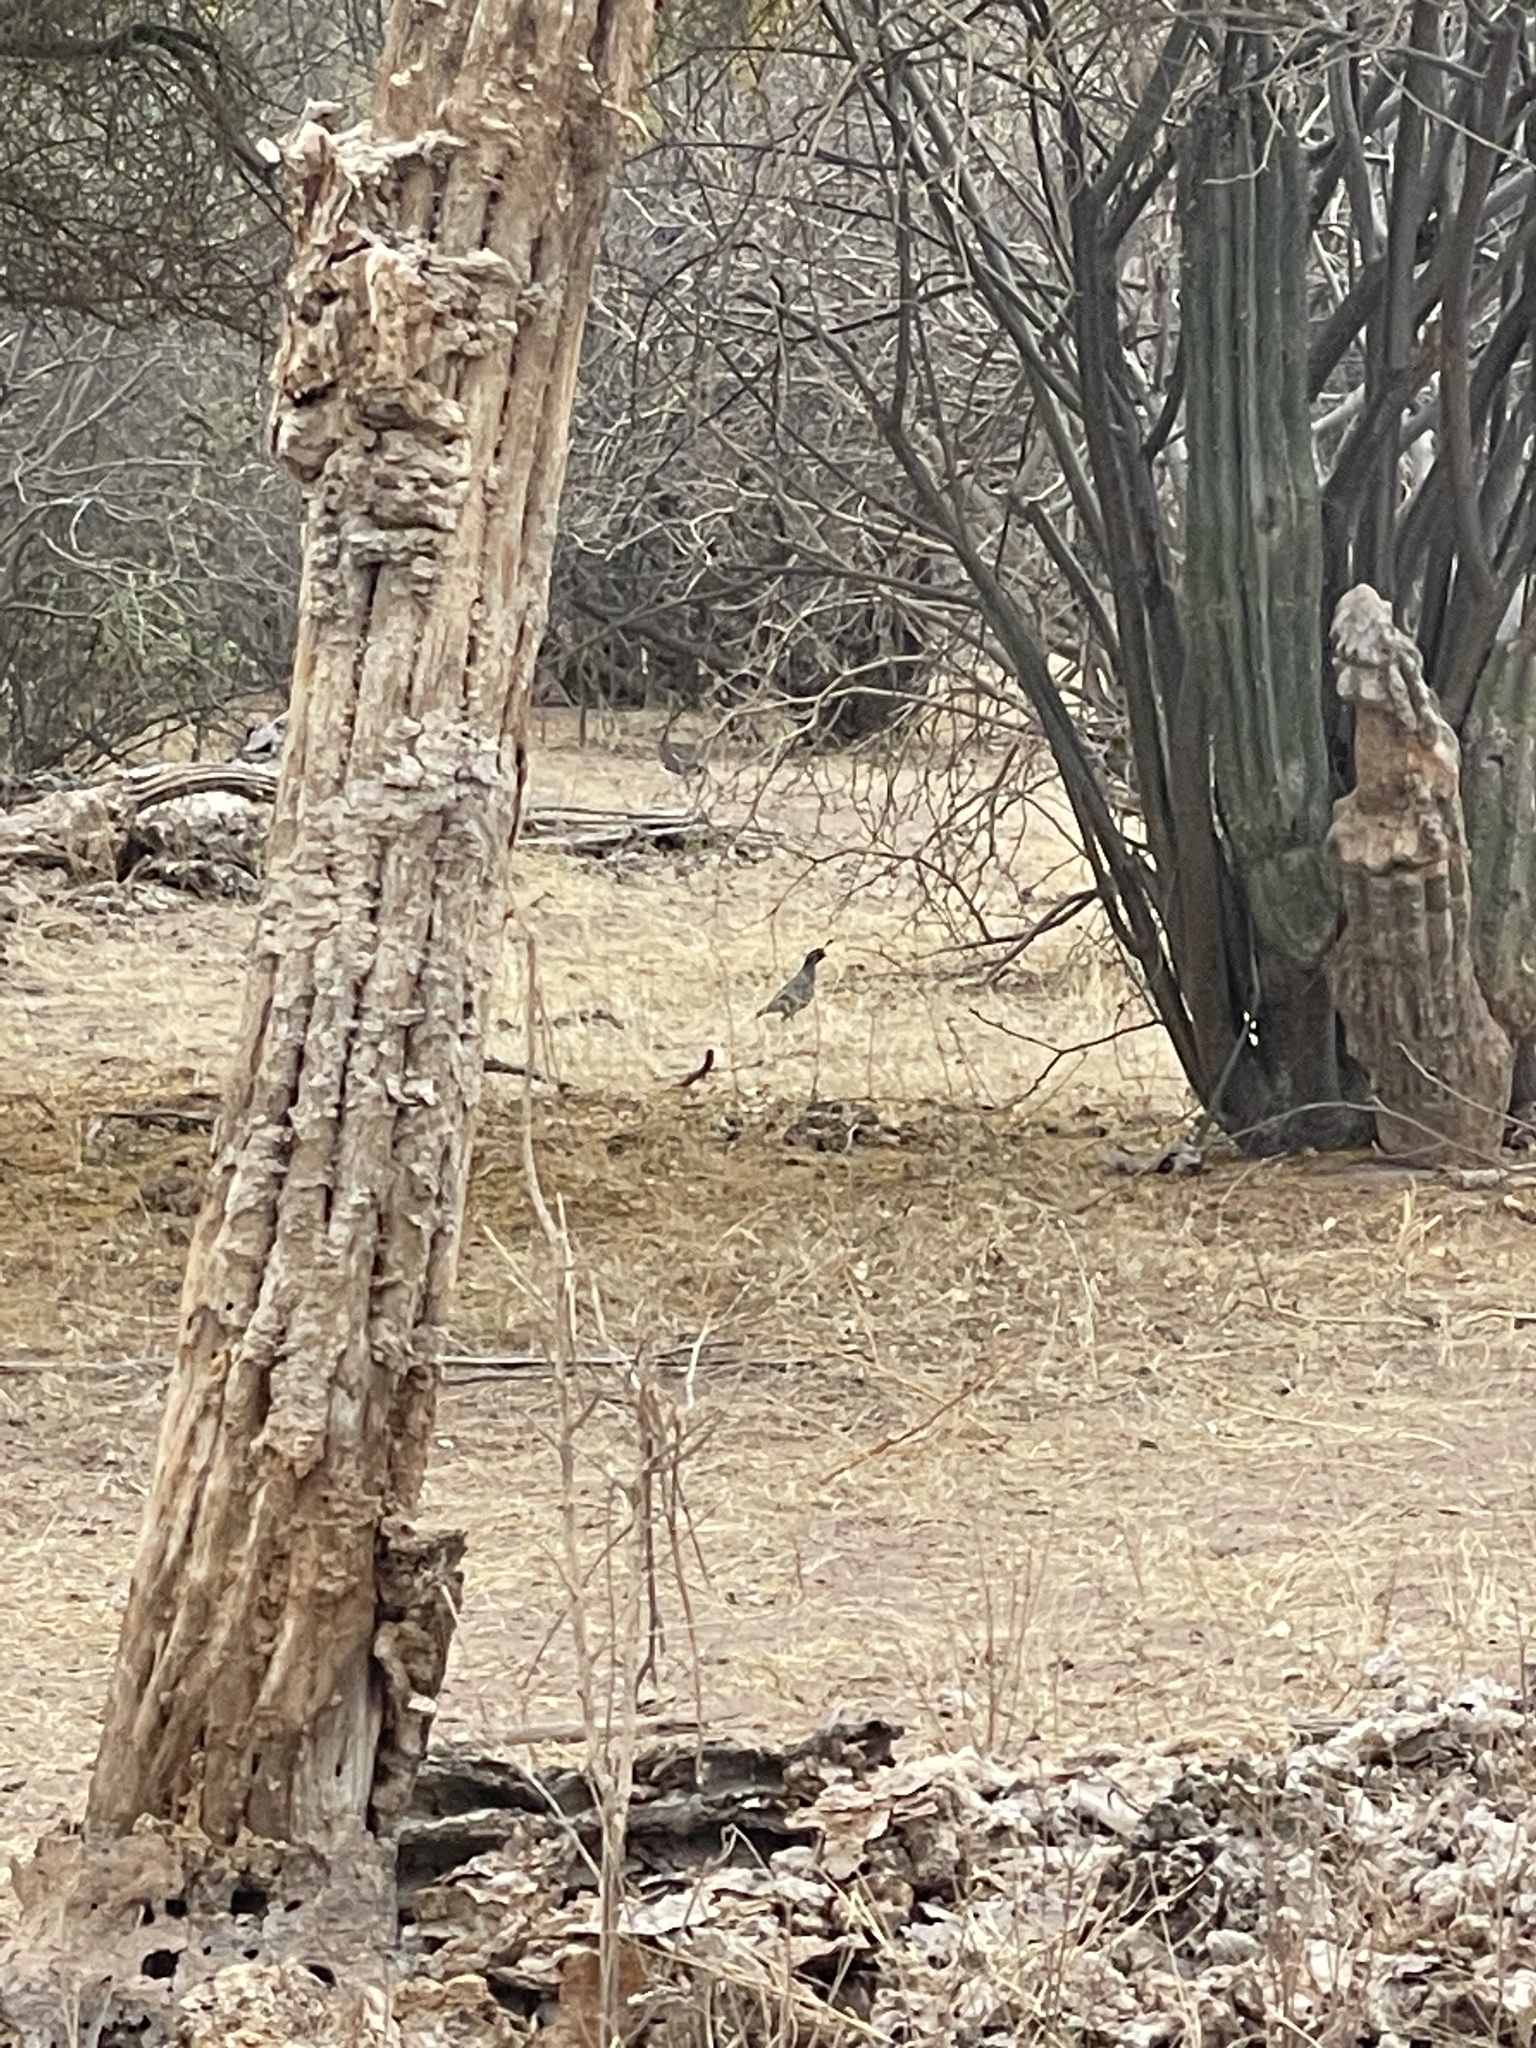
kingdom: Animalia
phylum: Chordata
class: Aves
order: Galliformes
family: Odontophoridae
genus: Callipepla
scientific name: Callipepla californica
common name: California quail
